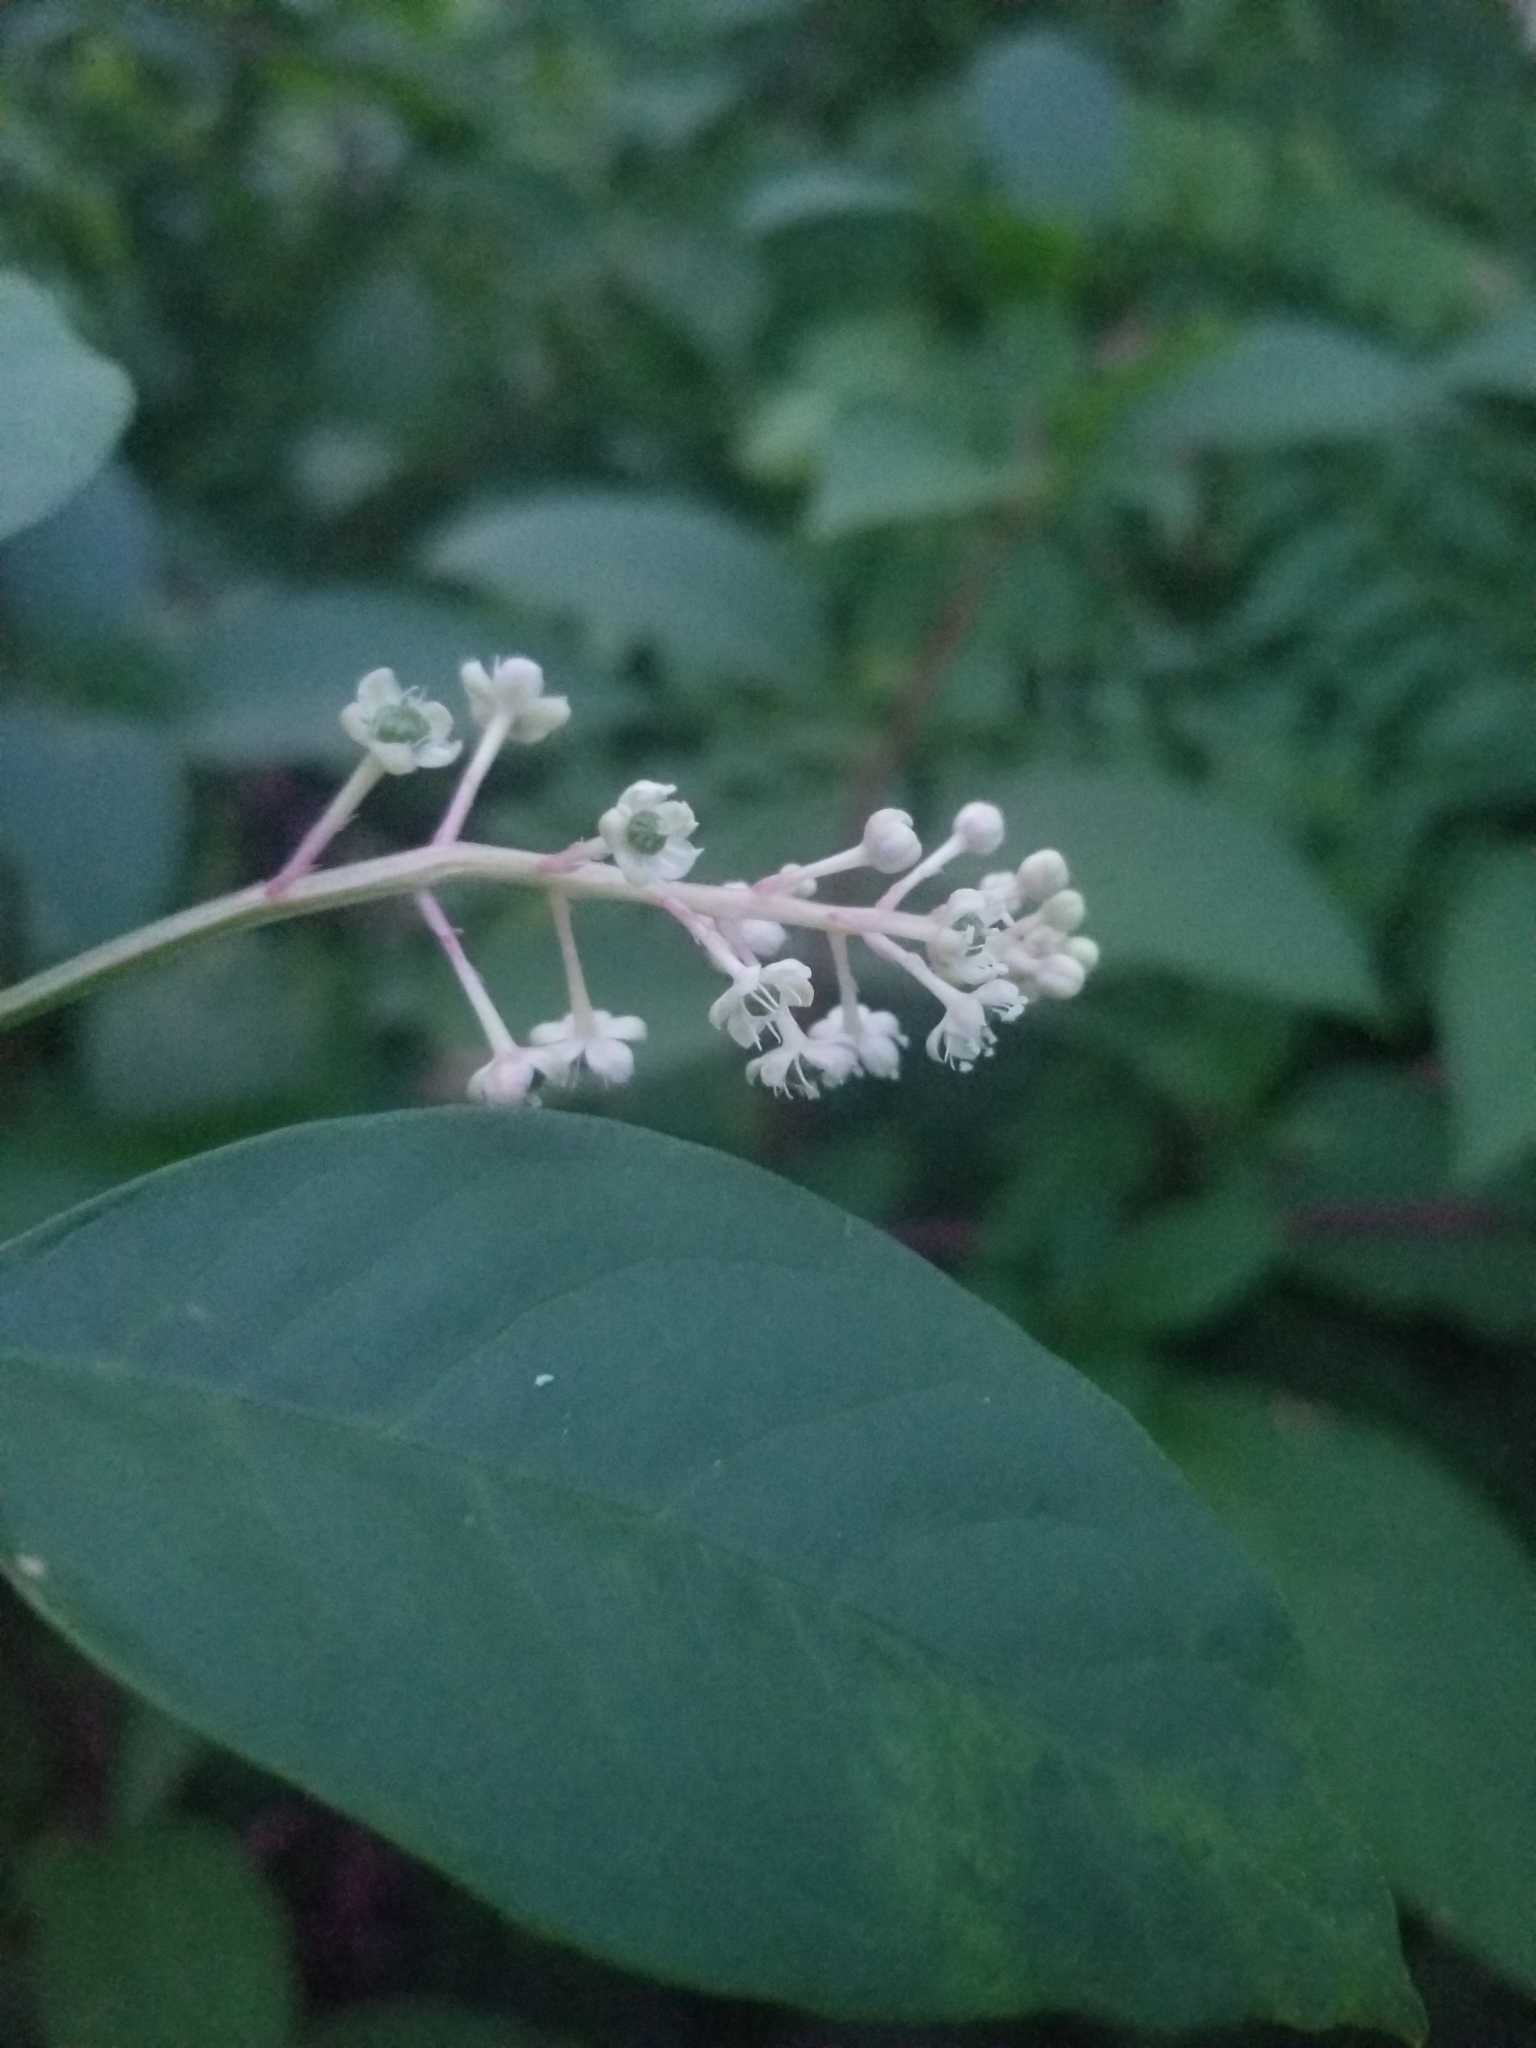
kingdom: Plantae
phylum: Tracheophyta
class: Magnoliopsida
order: Caryophyllales
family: Phytolaccaceae
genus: Phytolacca
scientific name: Phytolacca americana
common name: American pokeweed
